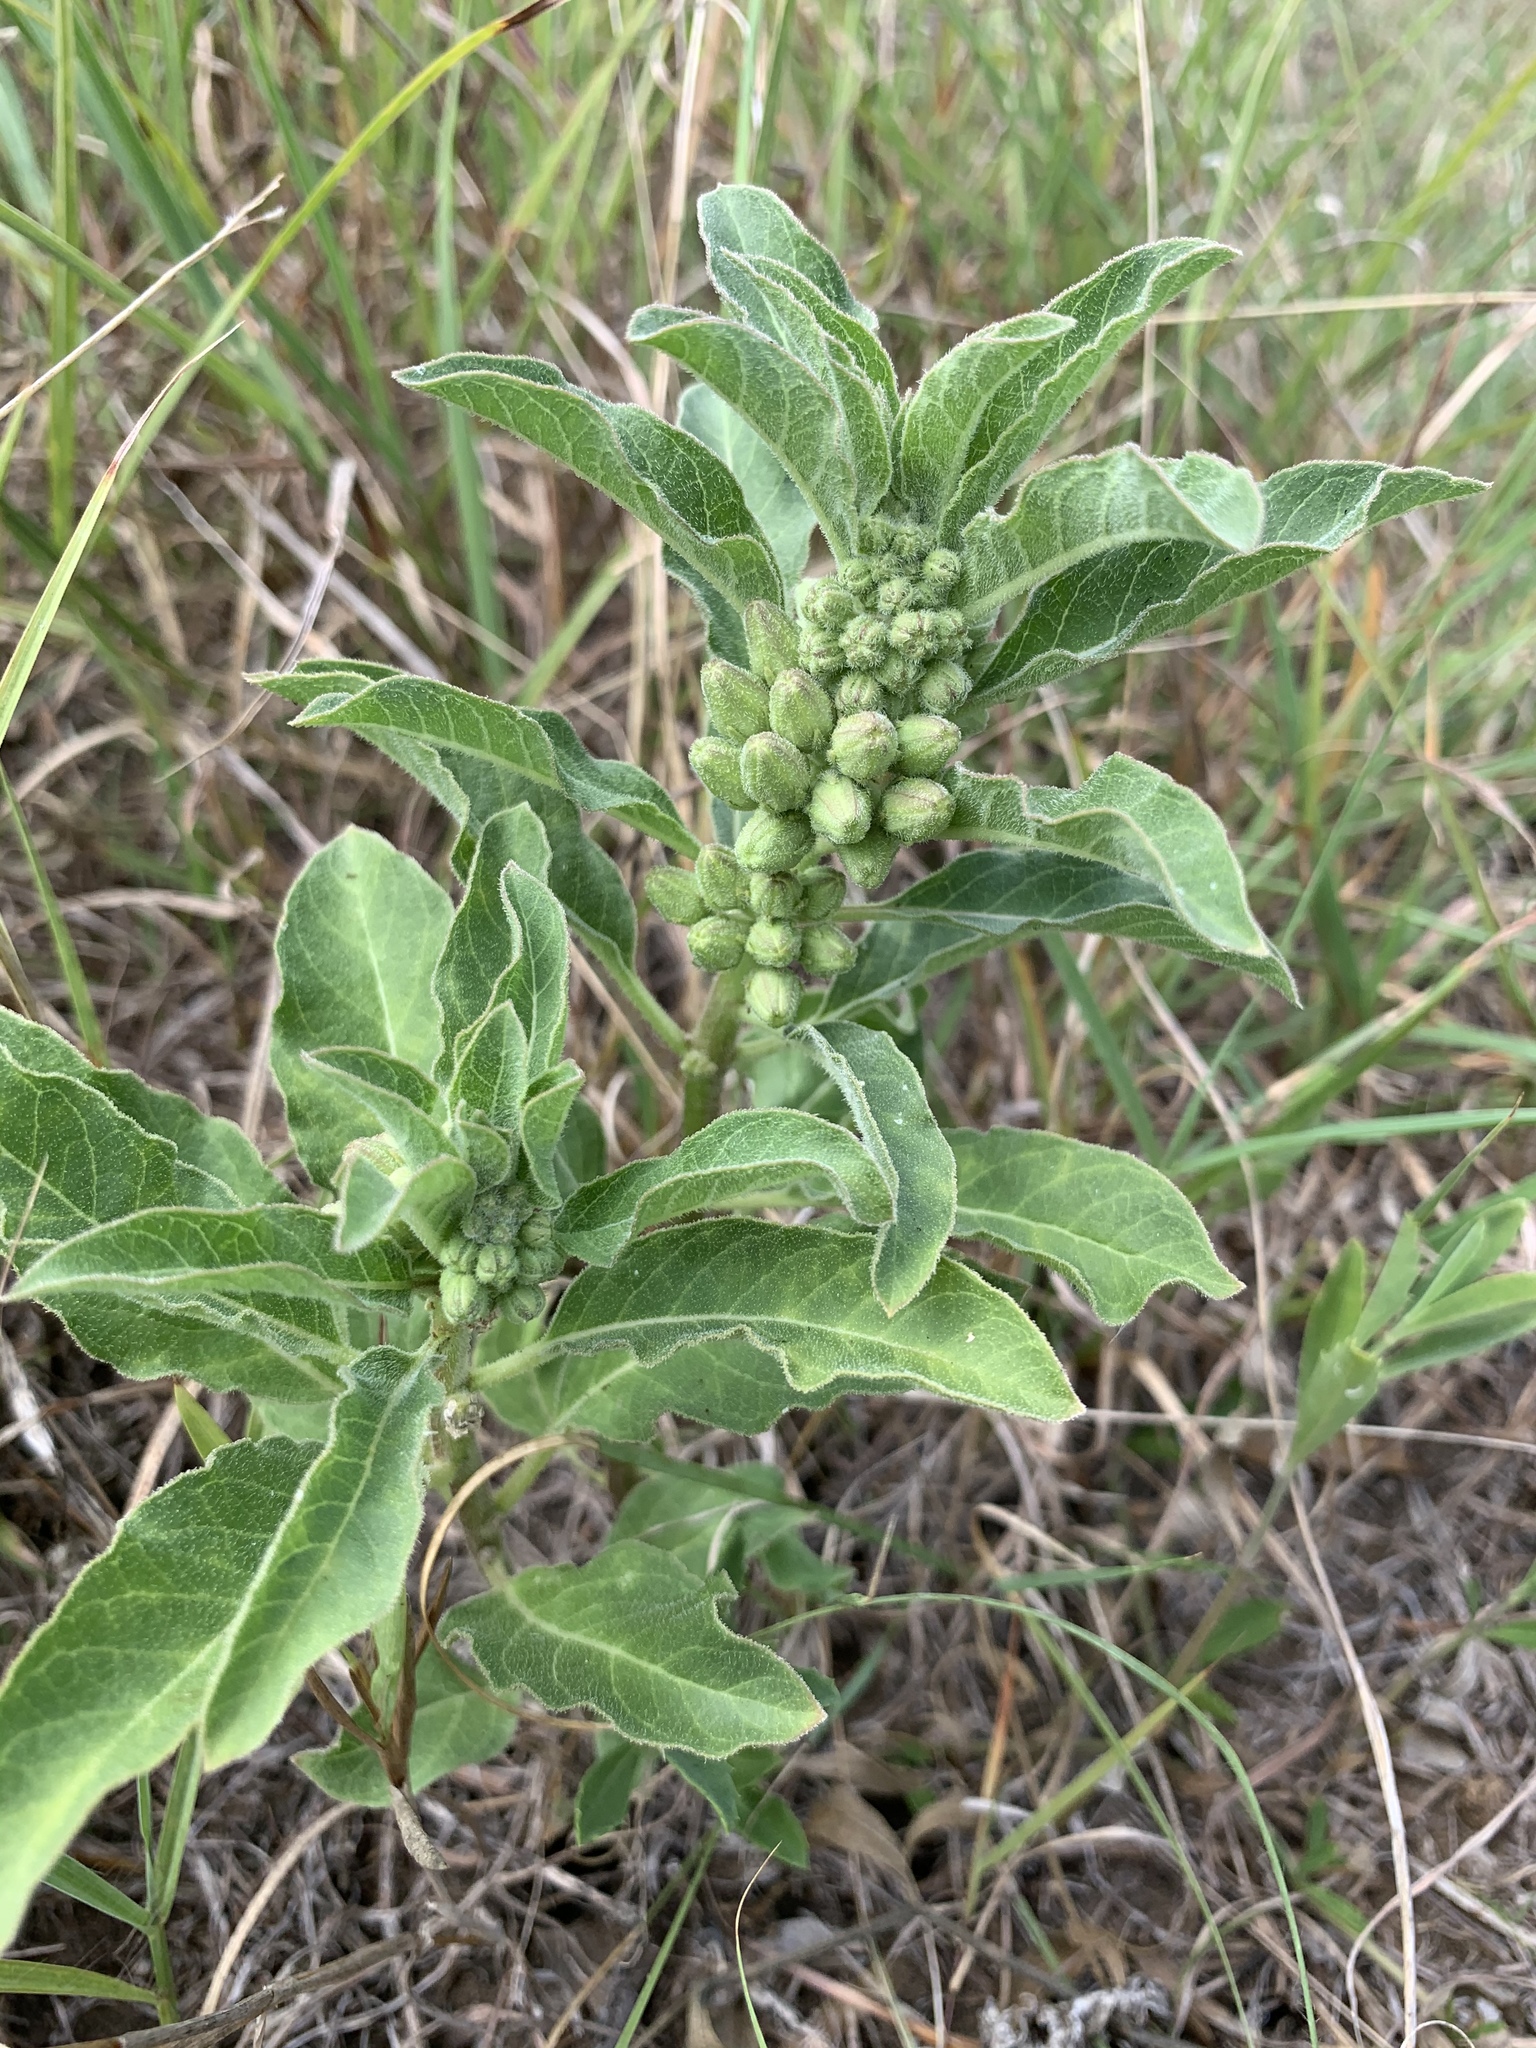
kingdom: Plantae
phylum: Tracheophyta
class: Magnoliopsida
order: Gentianales
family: Apocynaceae
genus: Asclepias
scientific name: Asclepias oenotheroides
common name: Zizotes milkweed
